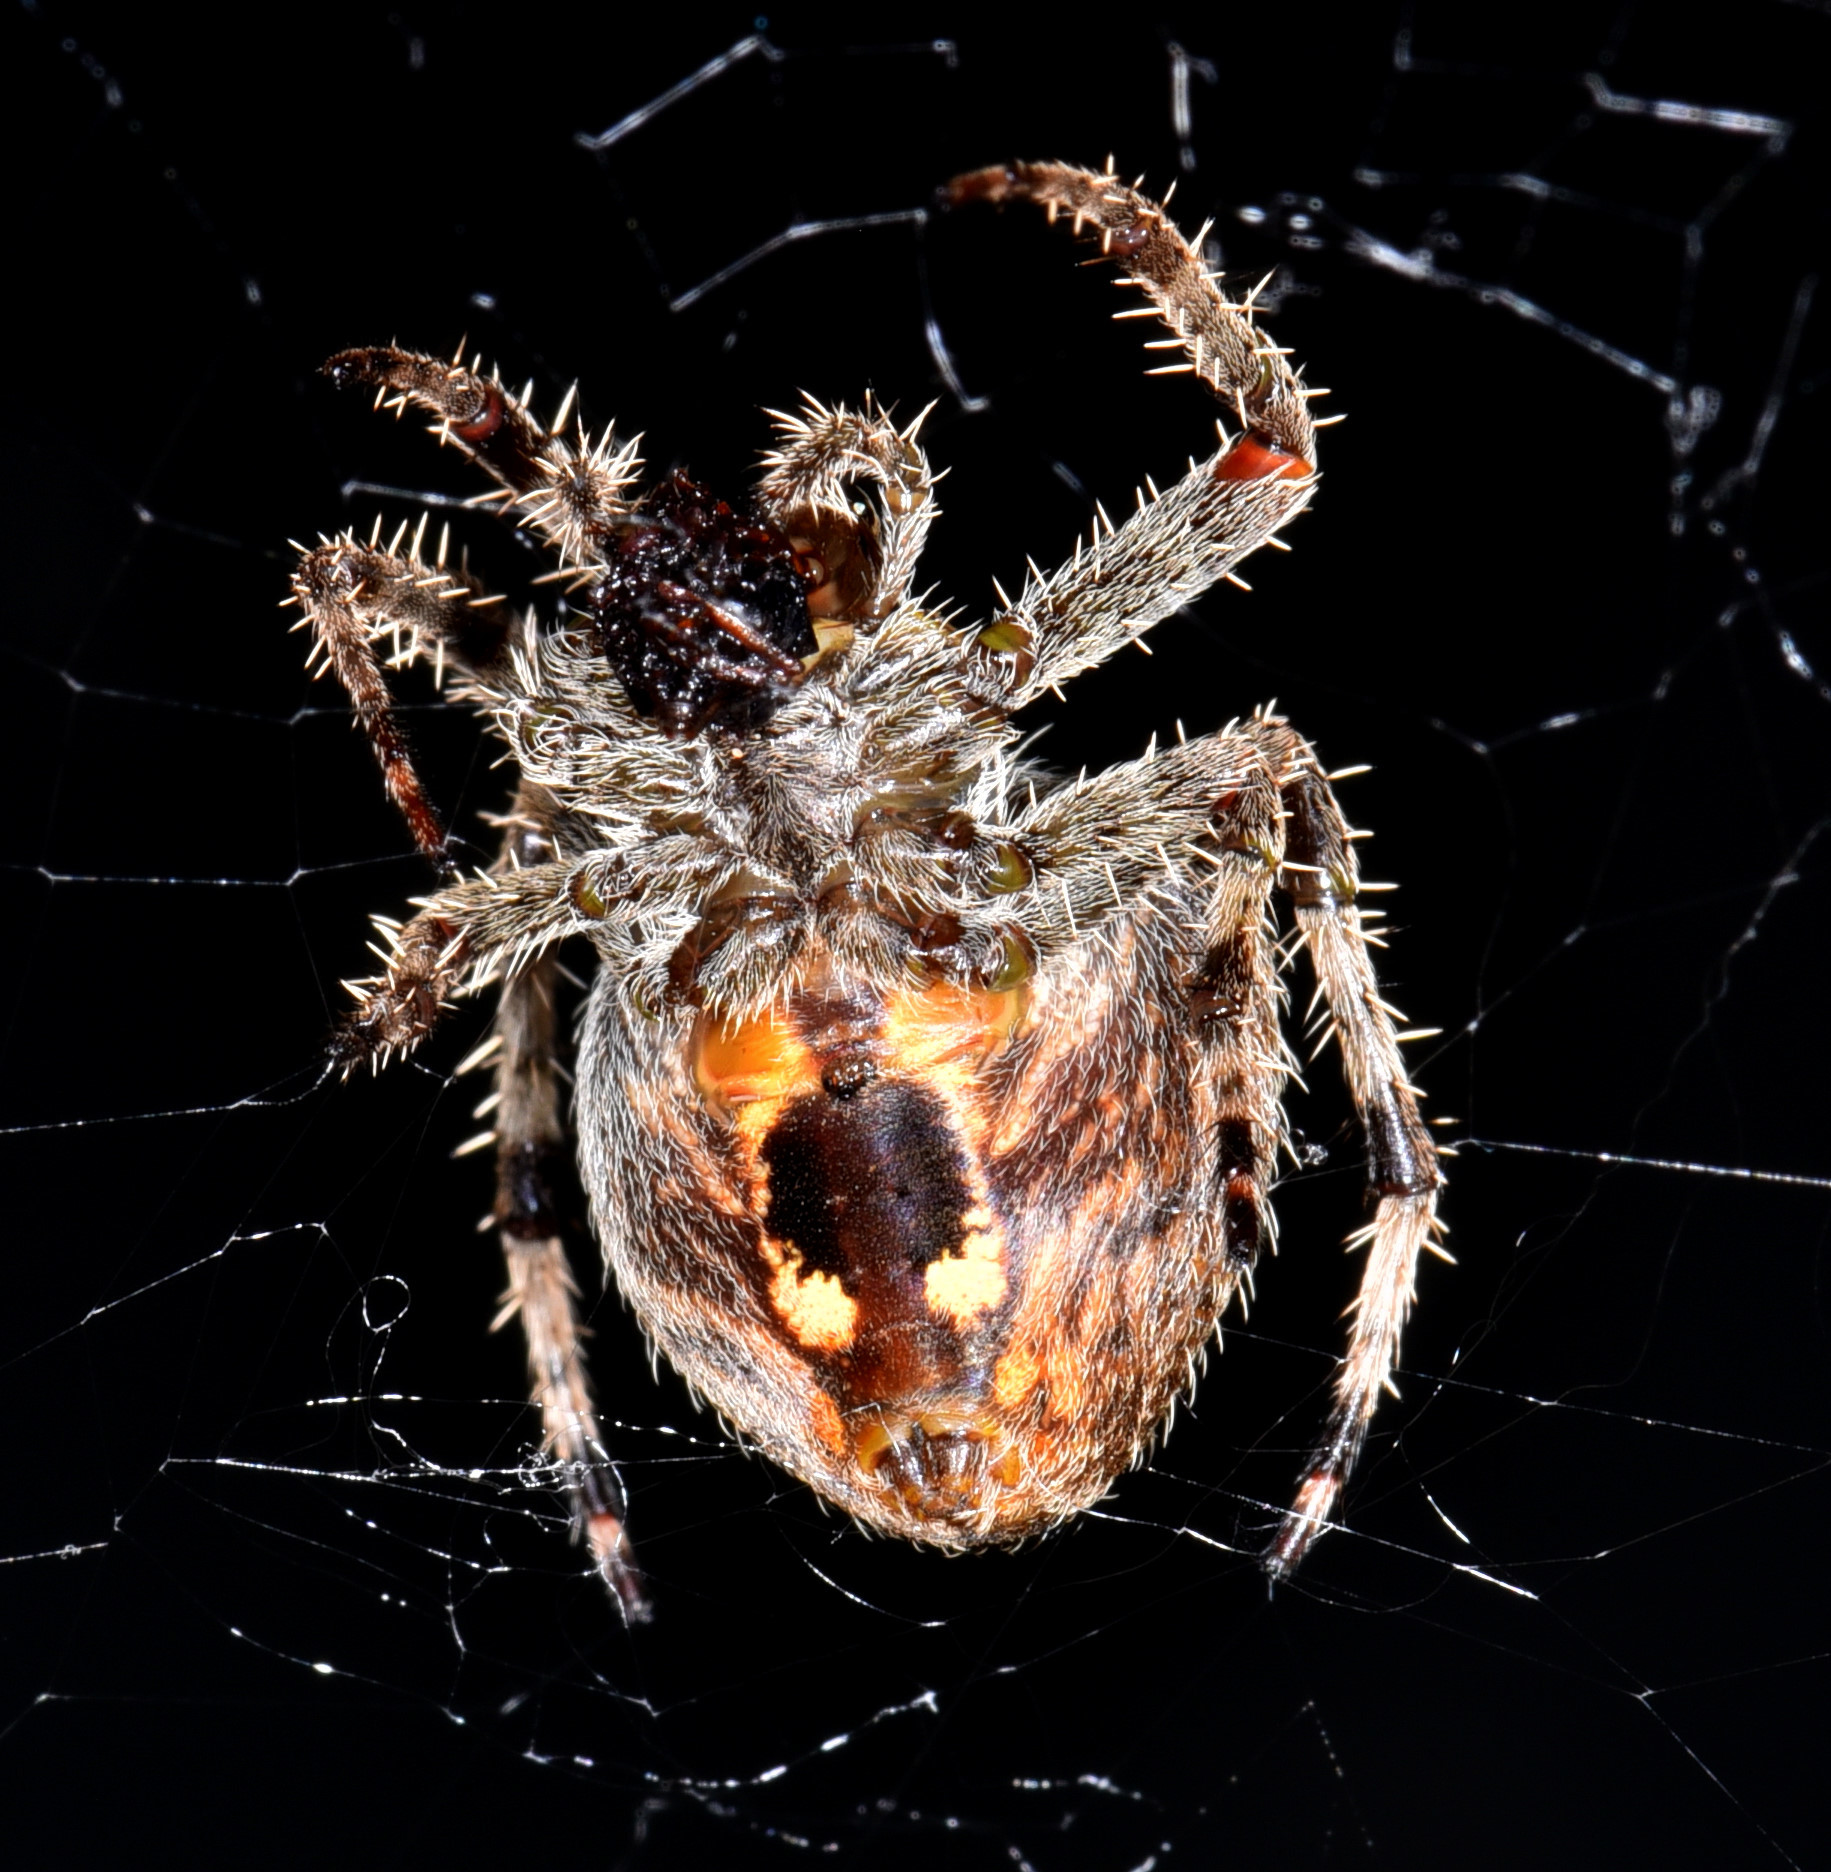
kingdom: Animalia
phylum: Arthropoda
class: Arachnida
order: Araneae
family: Araneidae
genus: Araneus
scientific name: Araneus gemma
